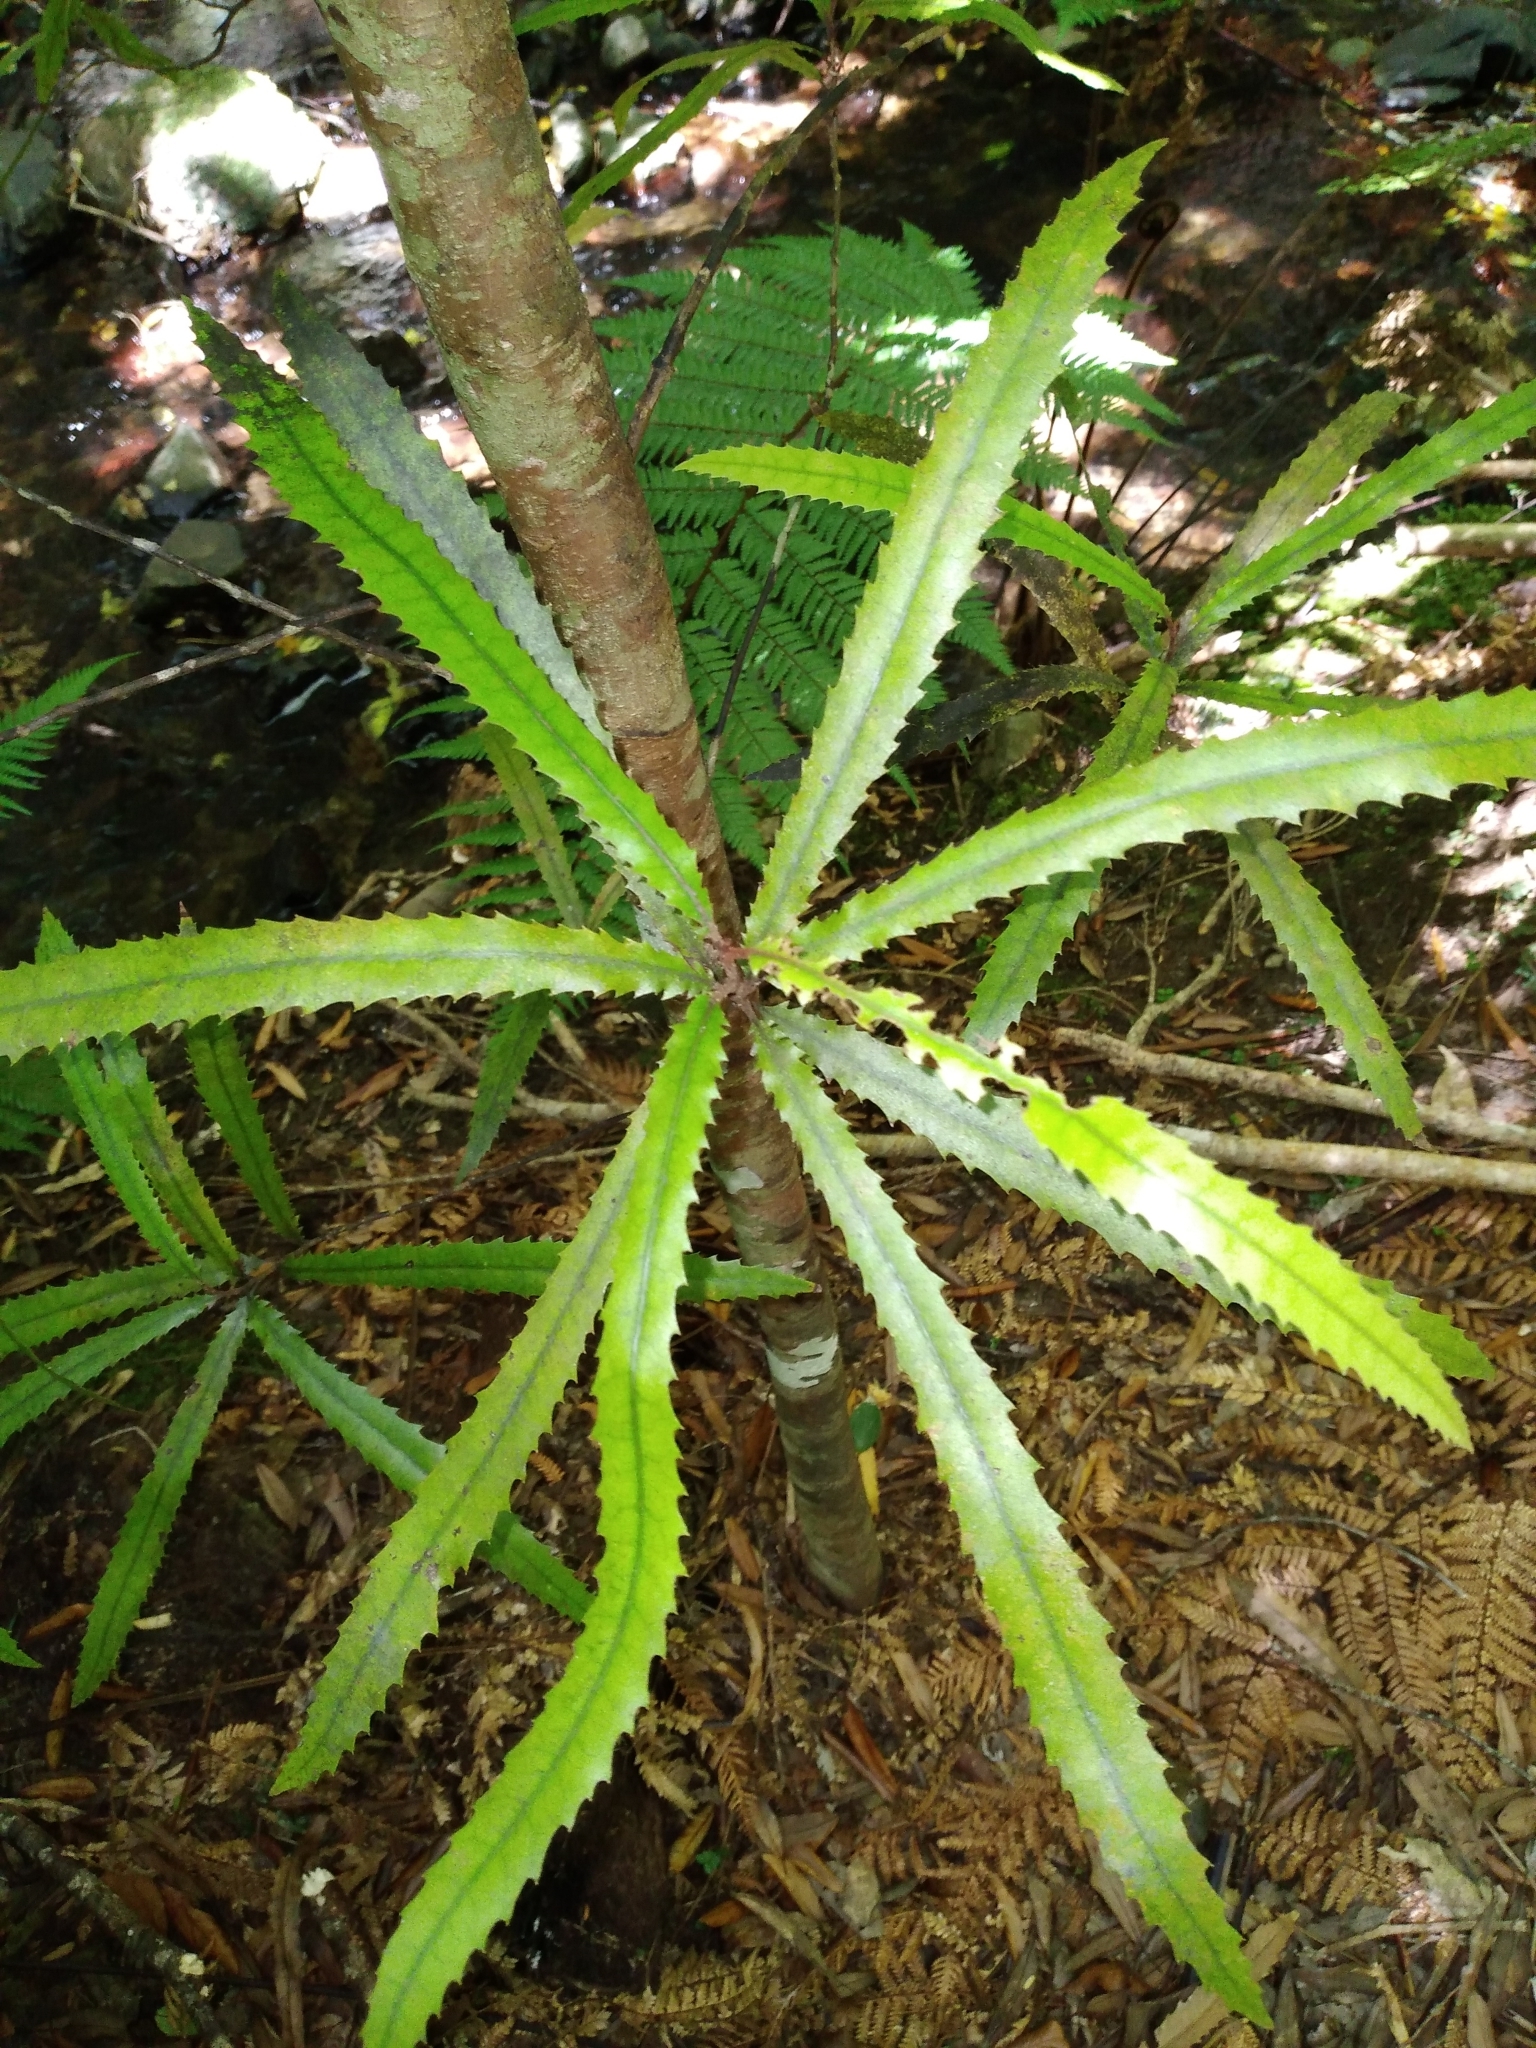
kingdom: Plantae
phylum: Tracheophyta
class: Magnoliopsida
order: Proteales
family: Proteaceae
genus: Knightia
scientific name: Knightia excelsa
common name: New zealand-honeysuckle
